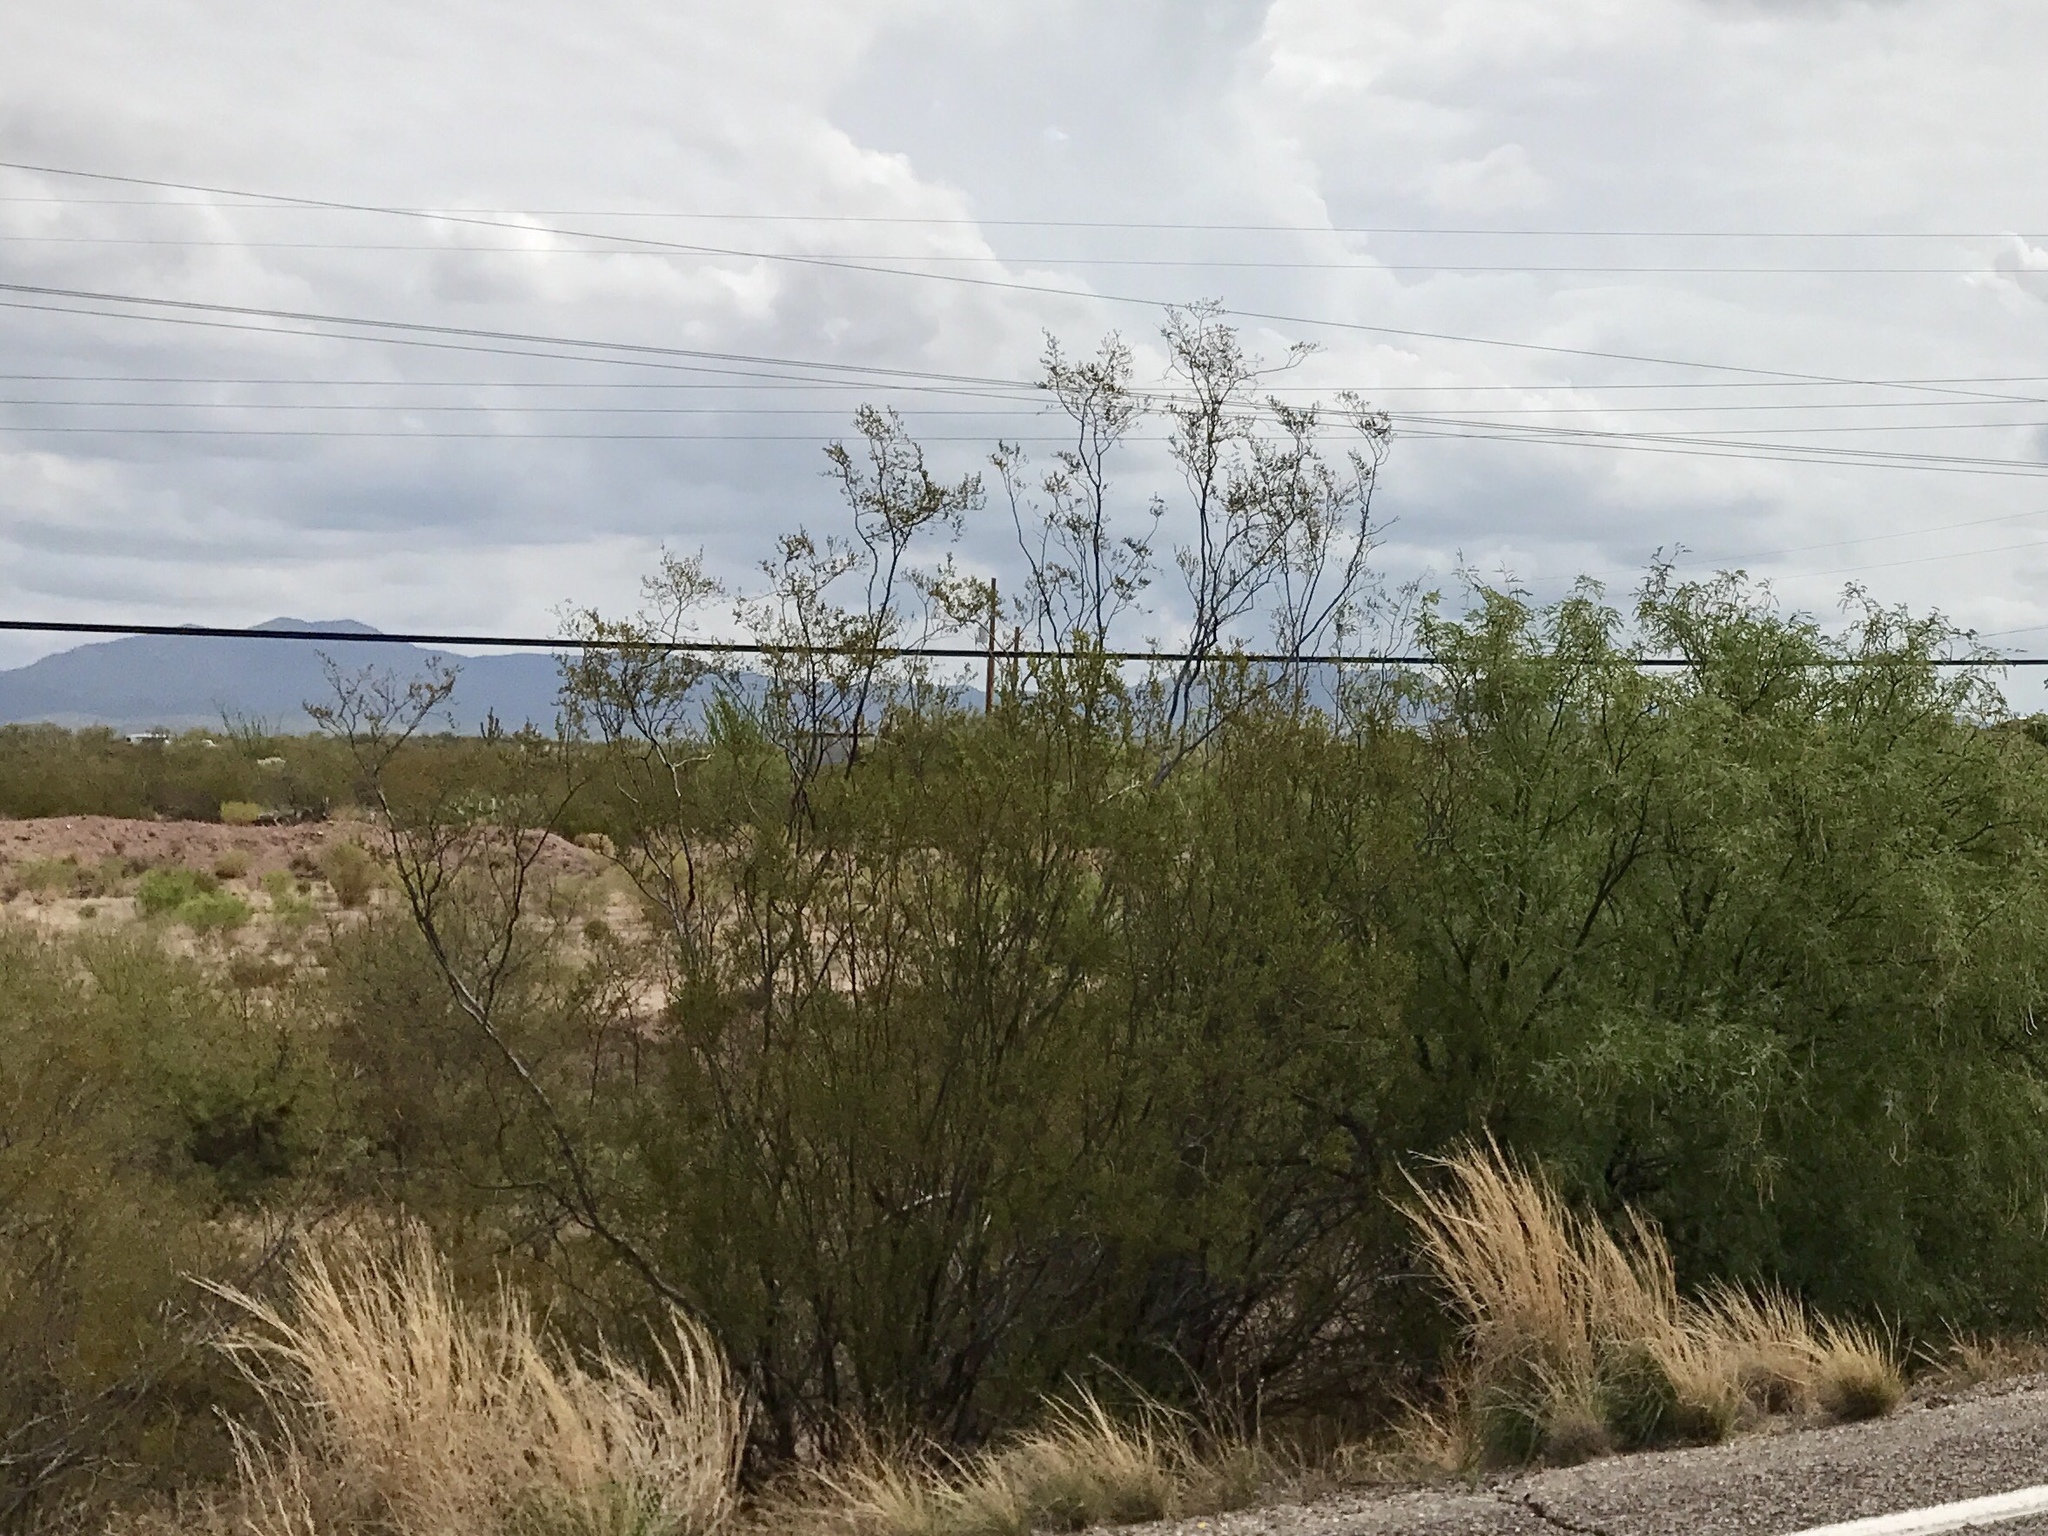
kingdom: Plantae
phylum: Tracheophyta
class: Magnoliopsida
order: Zygophyllales
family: Zygophyllaceae
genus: Larrea
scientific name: Larrea tridentata
